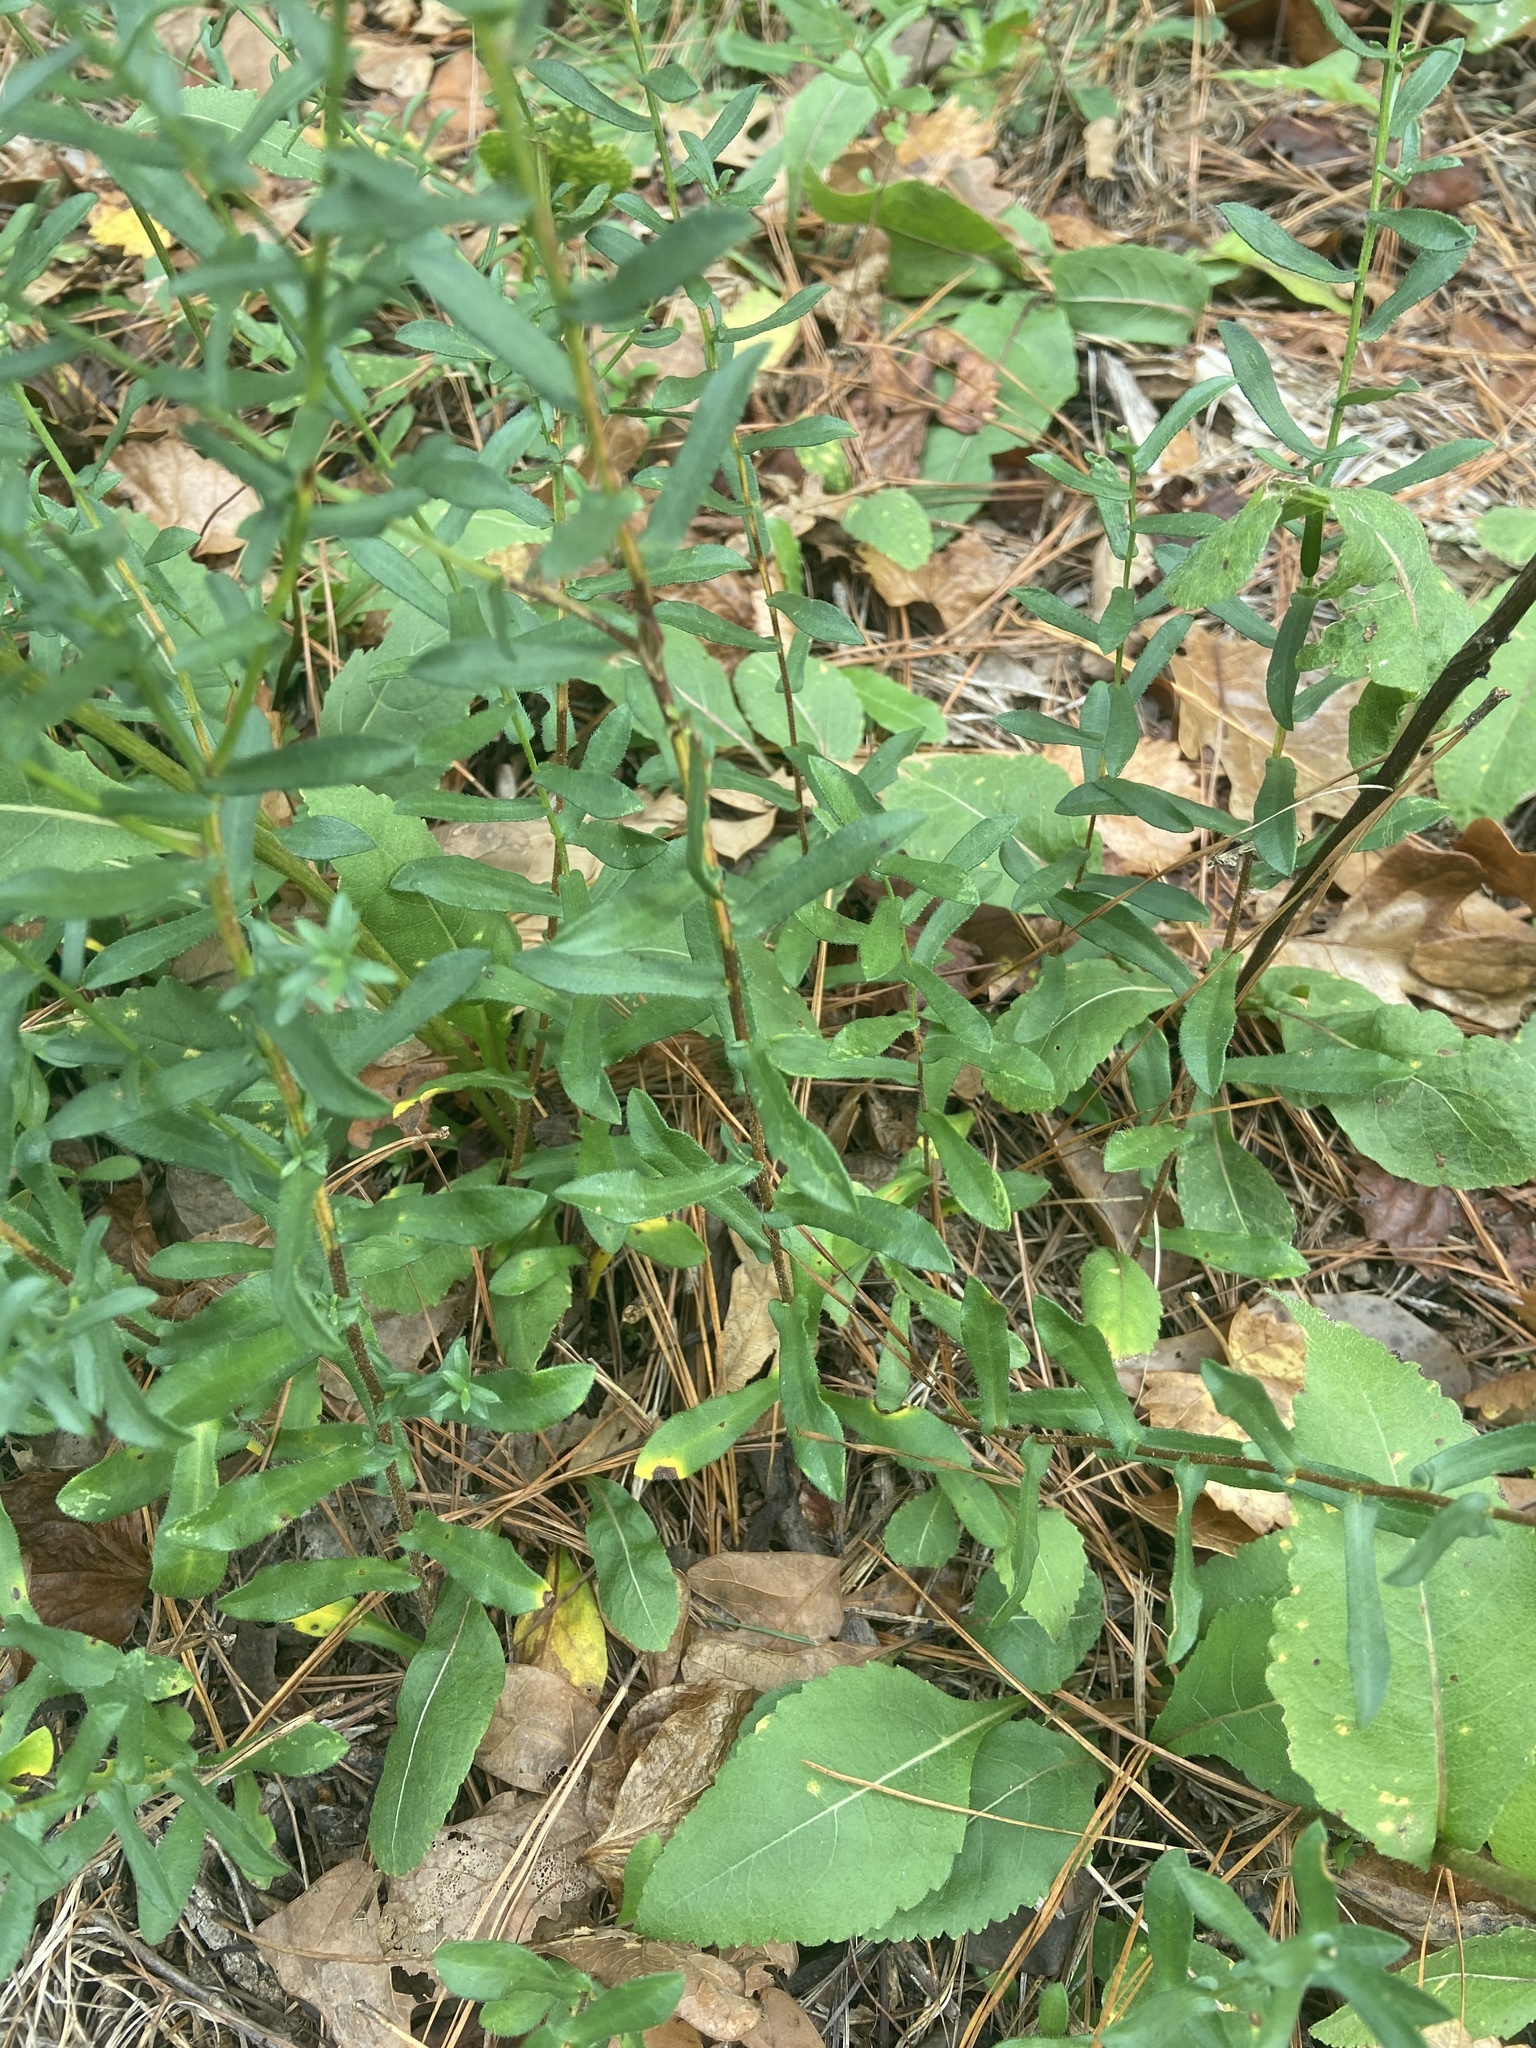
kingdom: Plantae
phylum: Tracheophyta
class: Magnoliopsida
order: Asterales
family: Asteraceae
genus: Symphyotrichum
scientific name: Symphyotrichum grandiflorum
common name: Big-head aster
